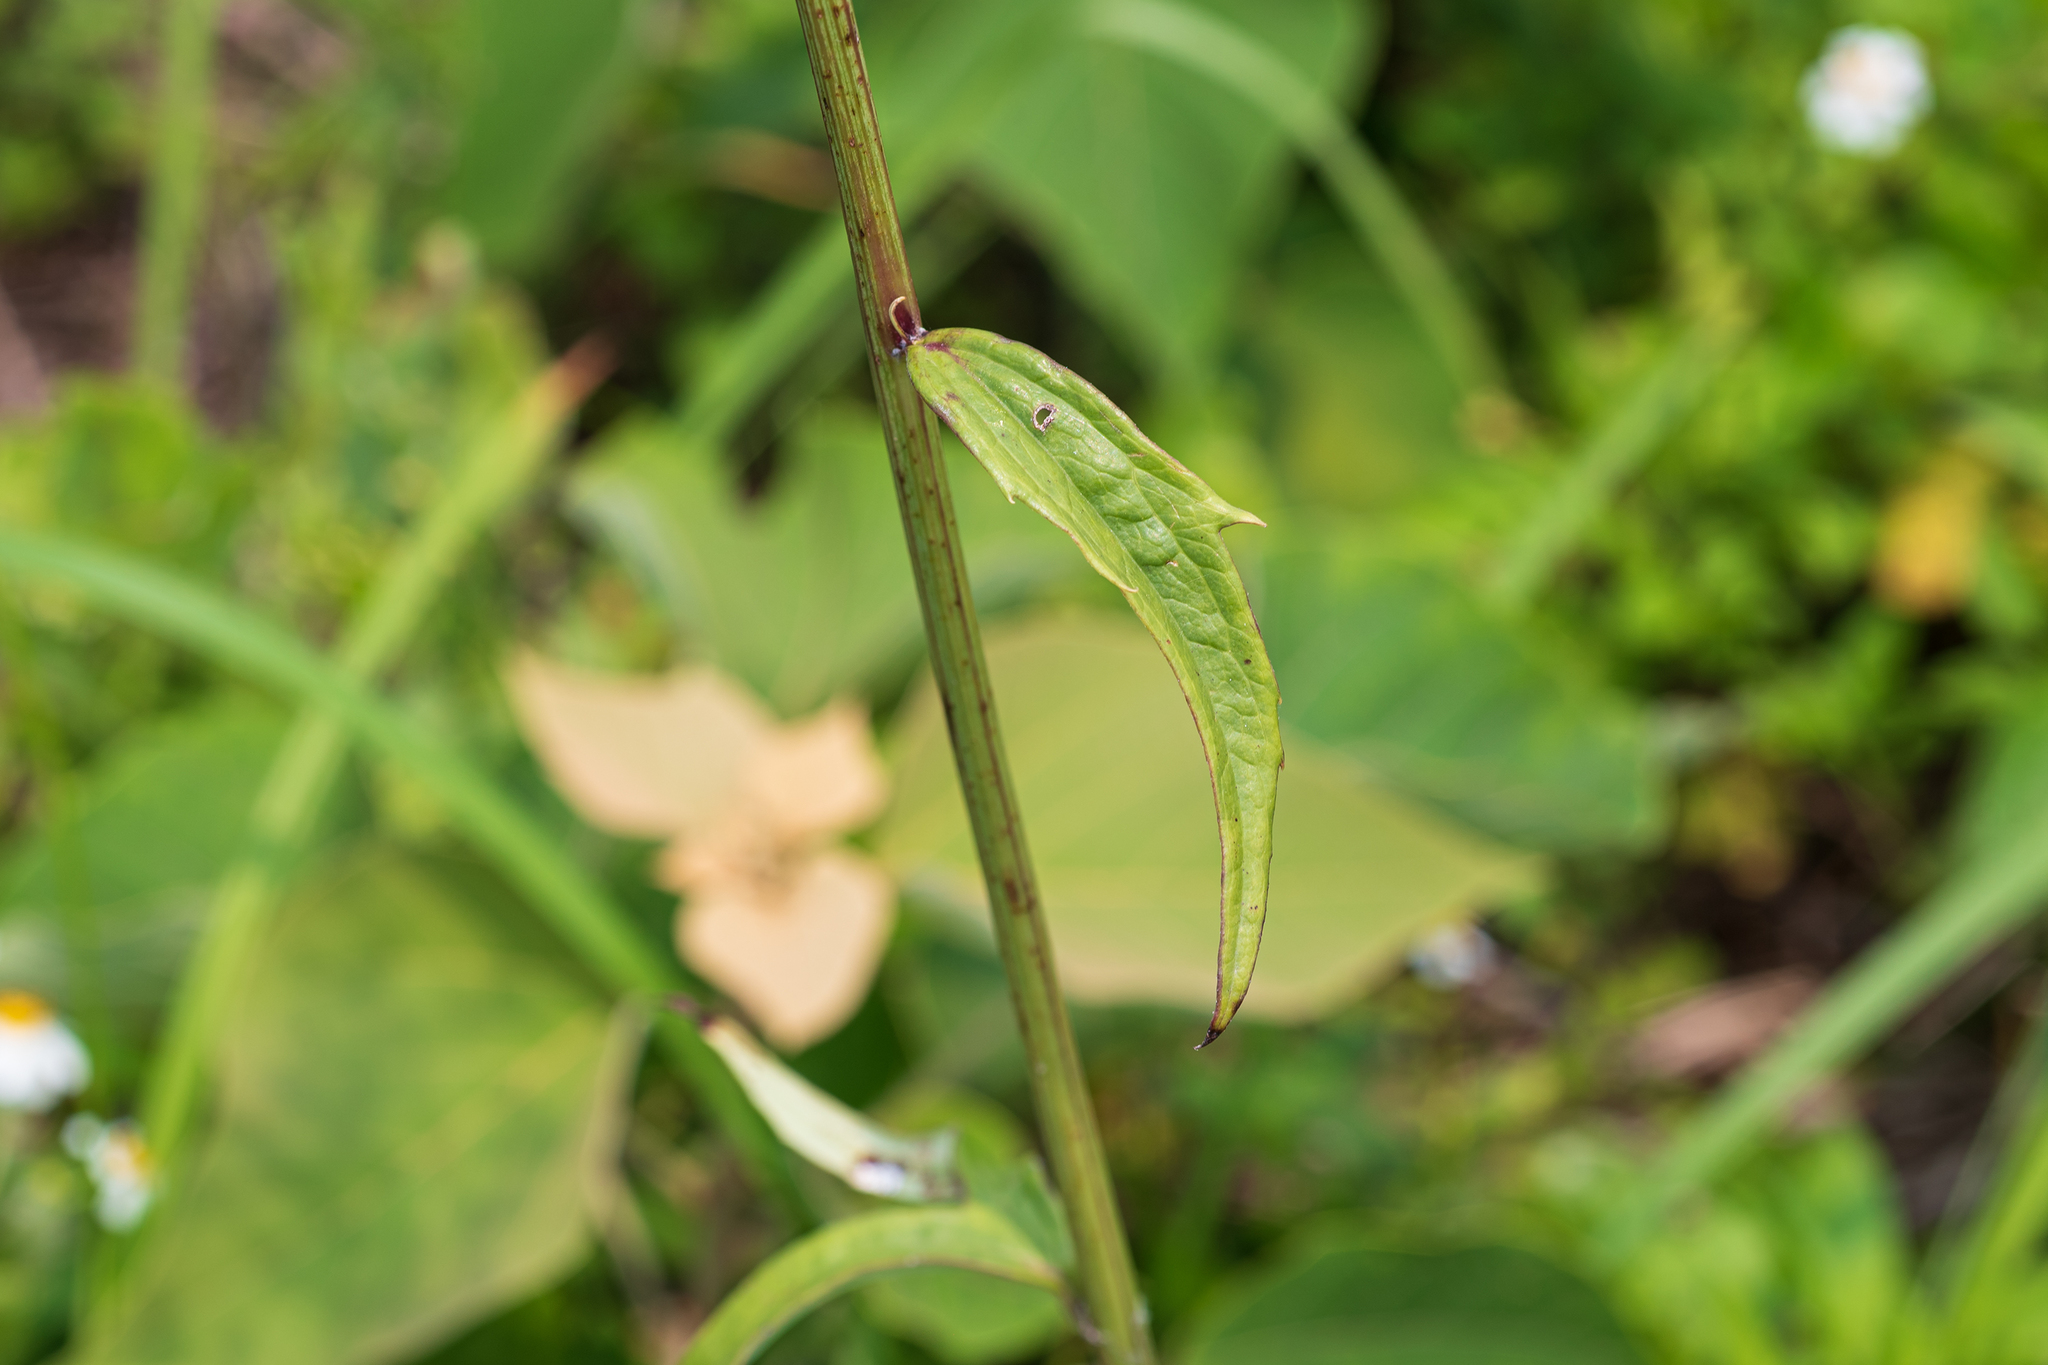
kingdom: Plantae
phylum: Tracheophyta
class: Magnoliopsida
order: Asterales
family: Asteraceae
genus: Syneilesis
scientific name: Syneilesis hayatae
